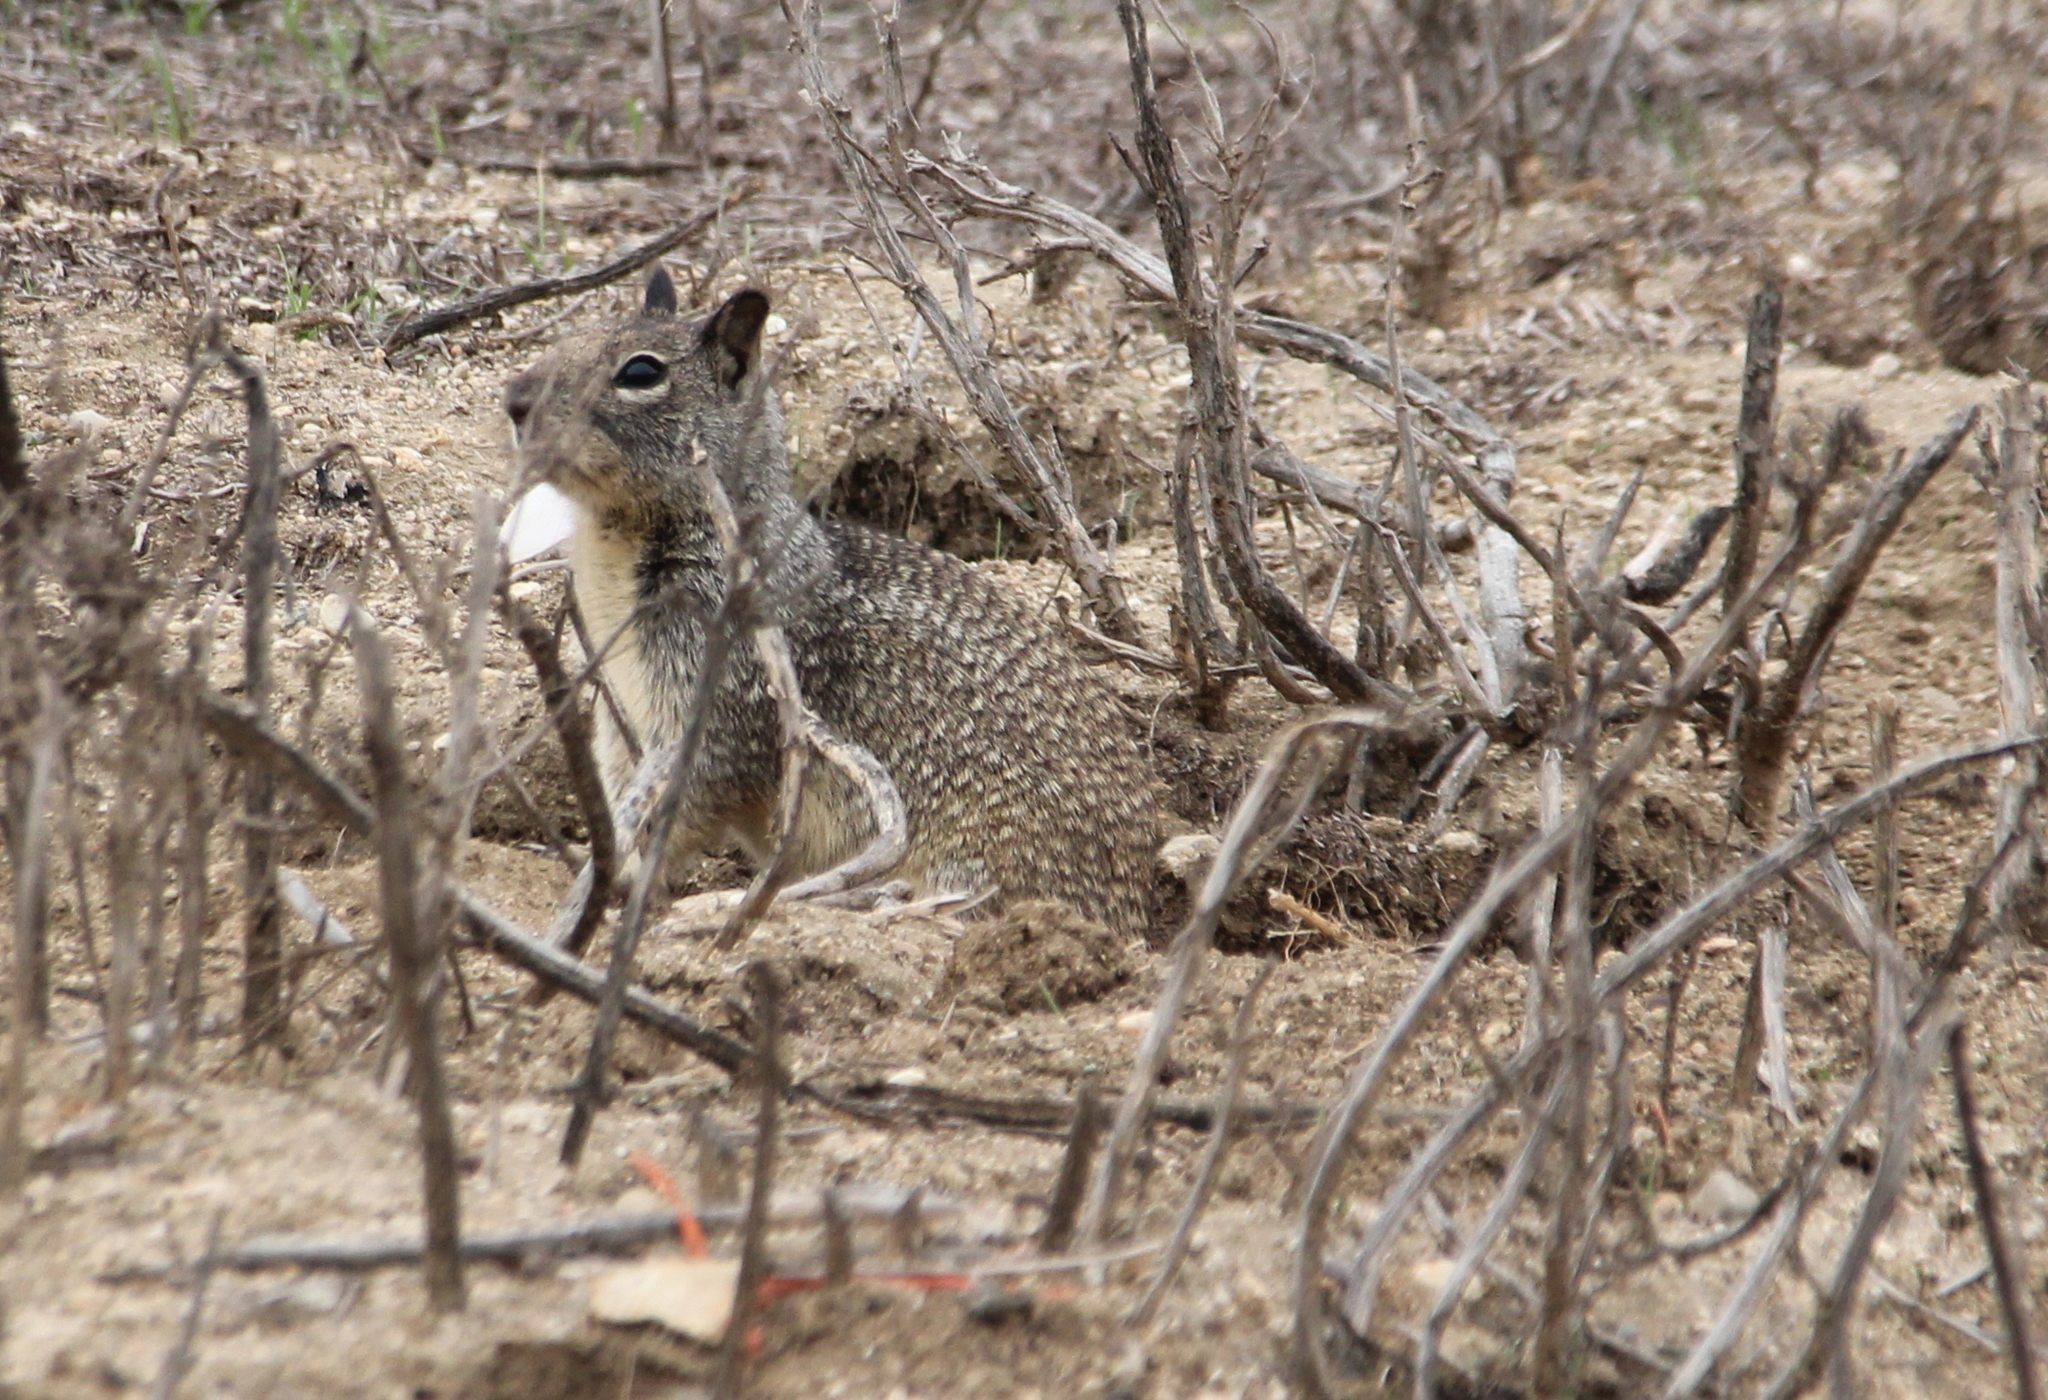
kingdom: Animalia
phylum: Chordata
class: Mammalia
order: Rodentia
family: Sciuridae
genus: Otospermophilus
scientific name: Otospermophilus beecheyi
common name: California ground squirrel
